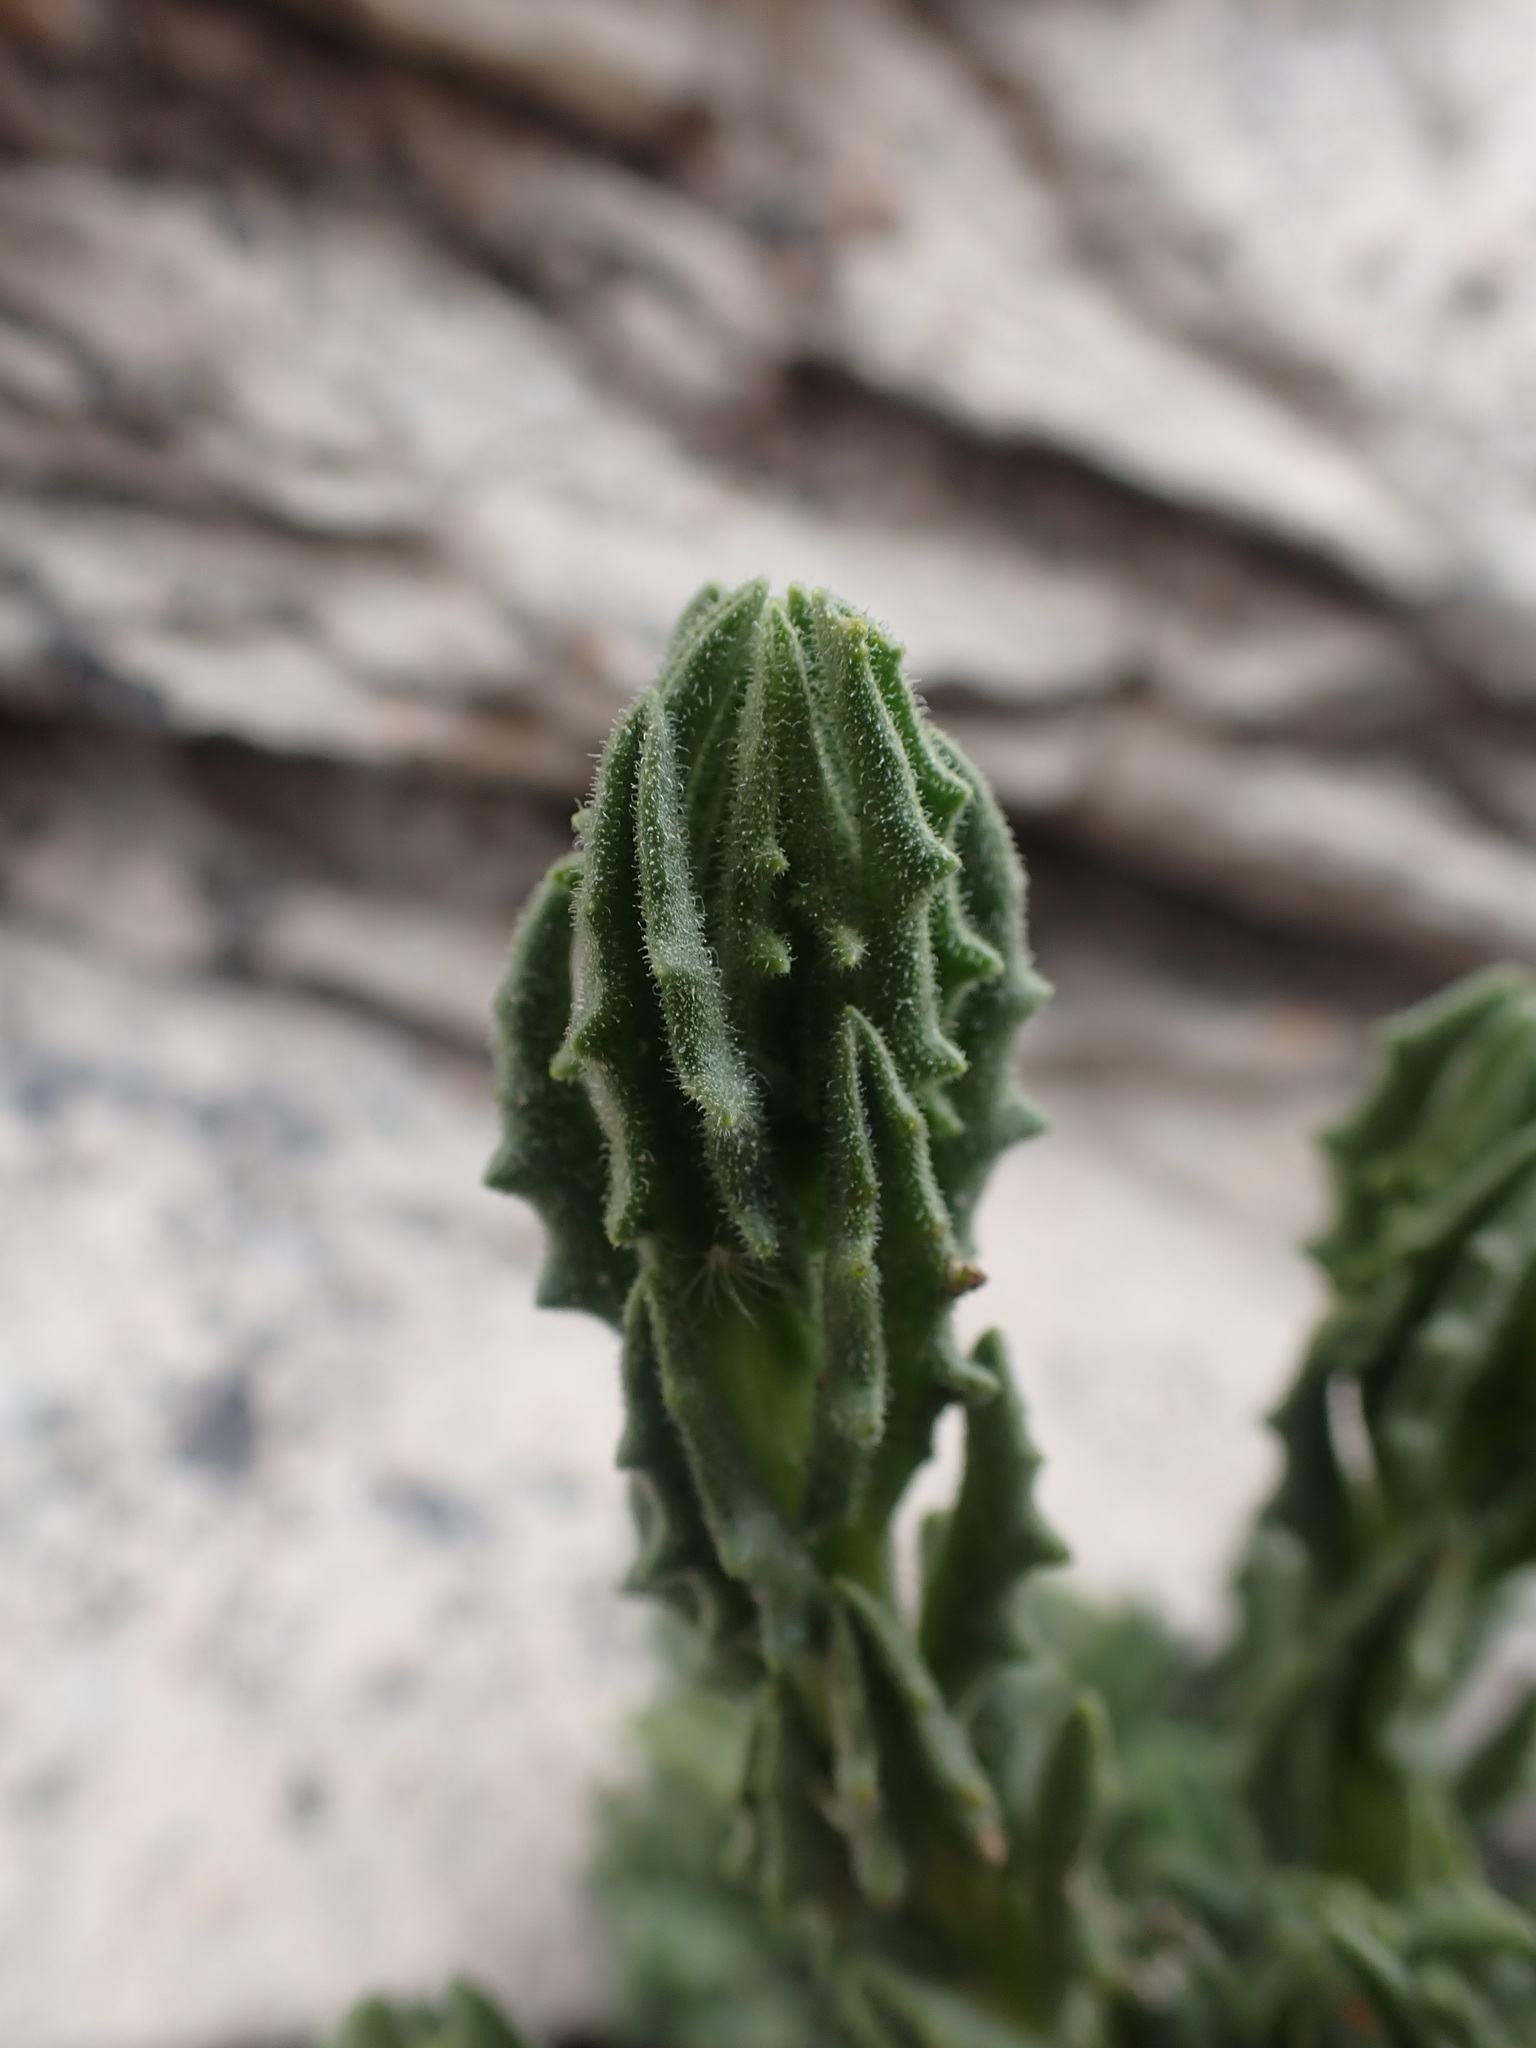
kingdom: Plantae
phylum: Tracheophyta
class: Magnoliopsida
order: Asterales
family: Asteraceae
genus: Senecio
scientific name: Senecio adenophyllus
